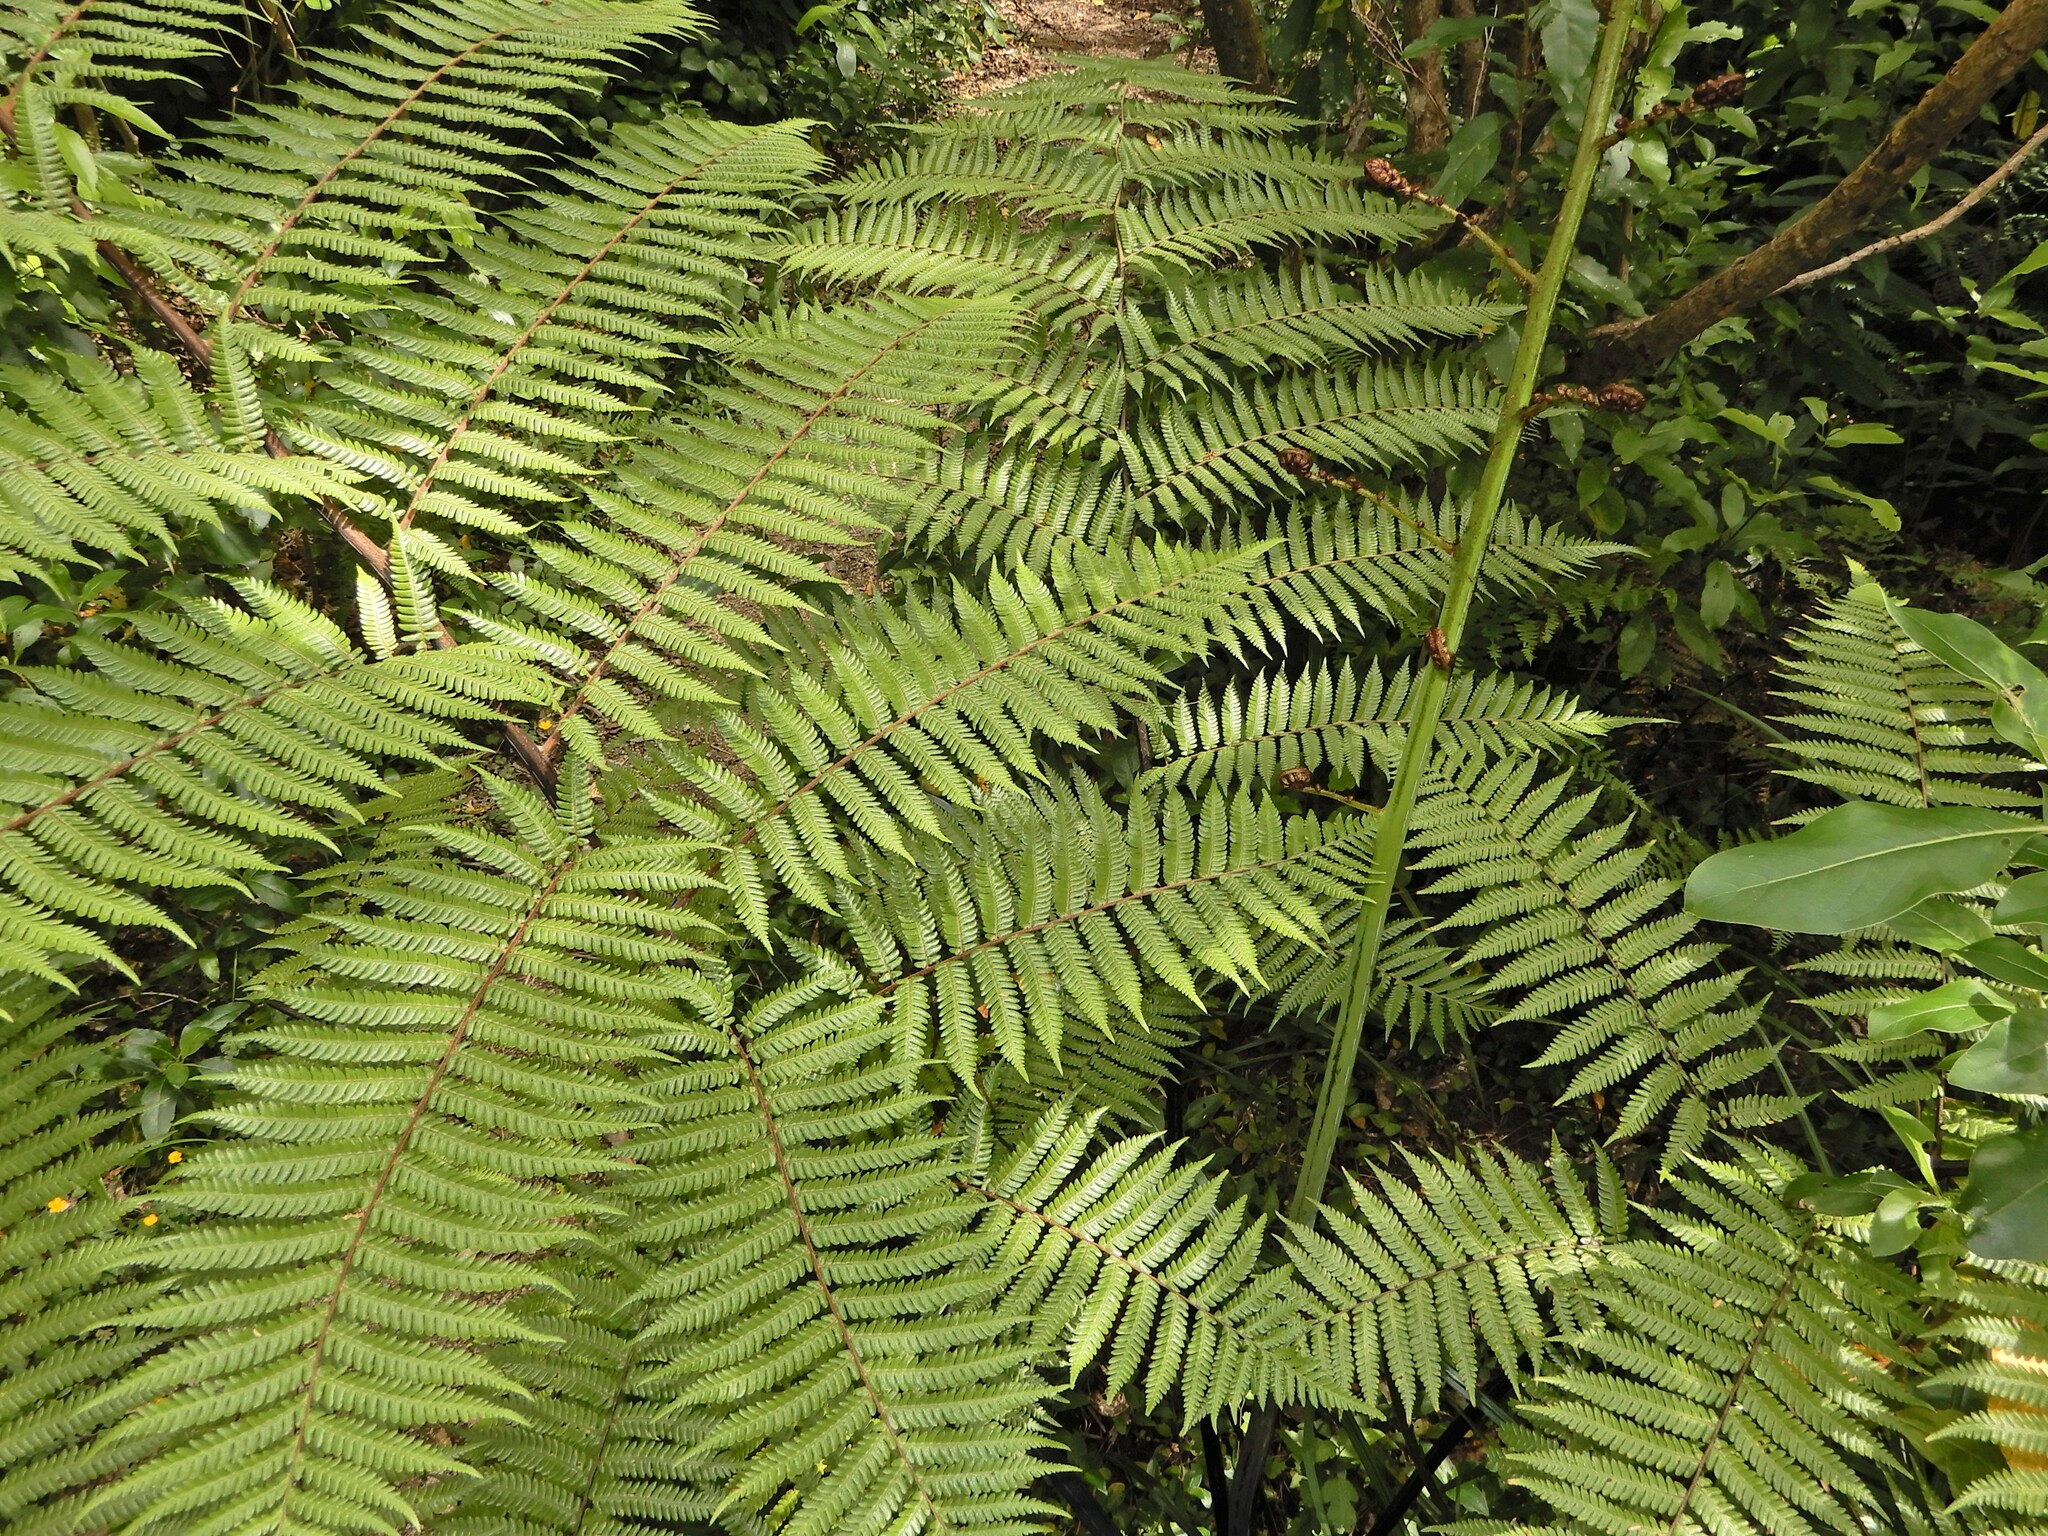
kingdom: Plantae
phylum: Tracheophyta
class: Polypodiopsida
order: Cyatheales
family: Cyatheaceae
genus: Sphaeropteris
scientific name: Sphaeropteris medullaris
